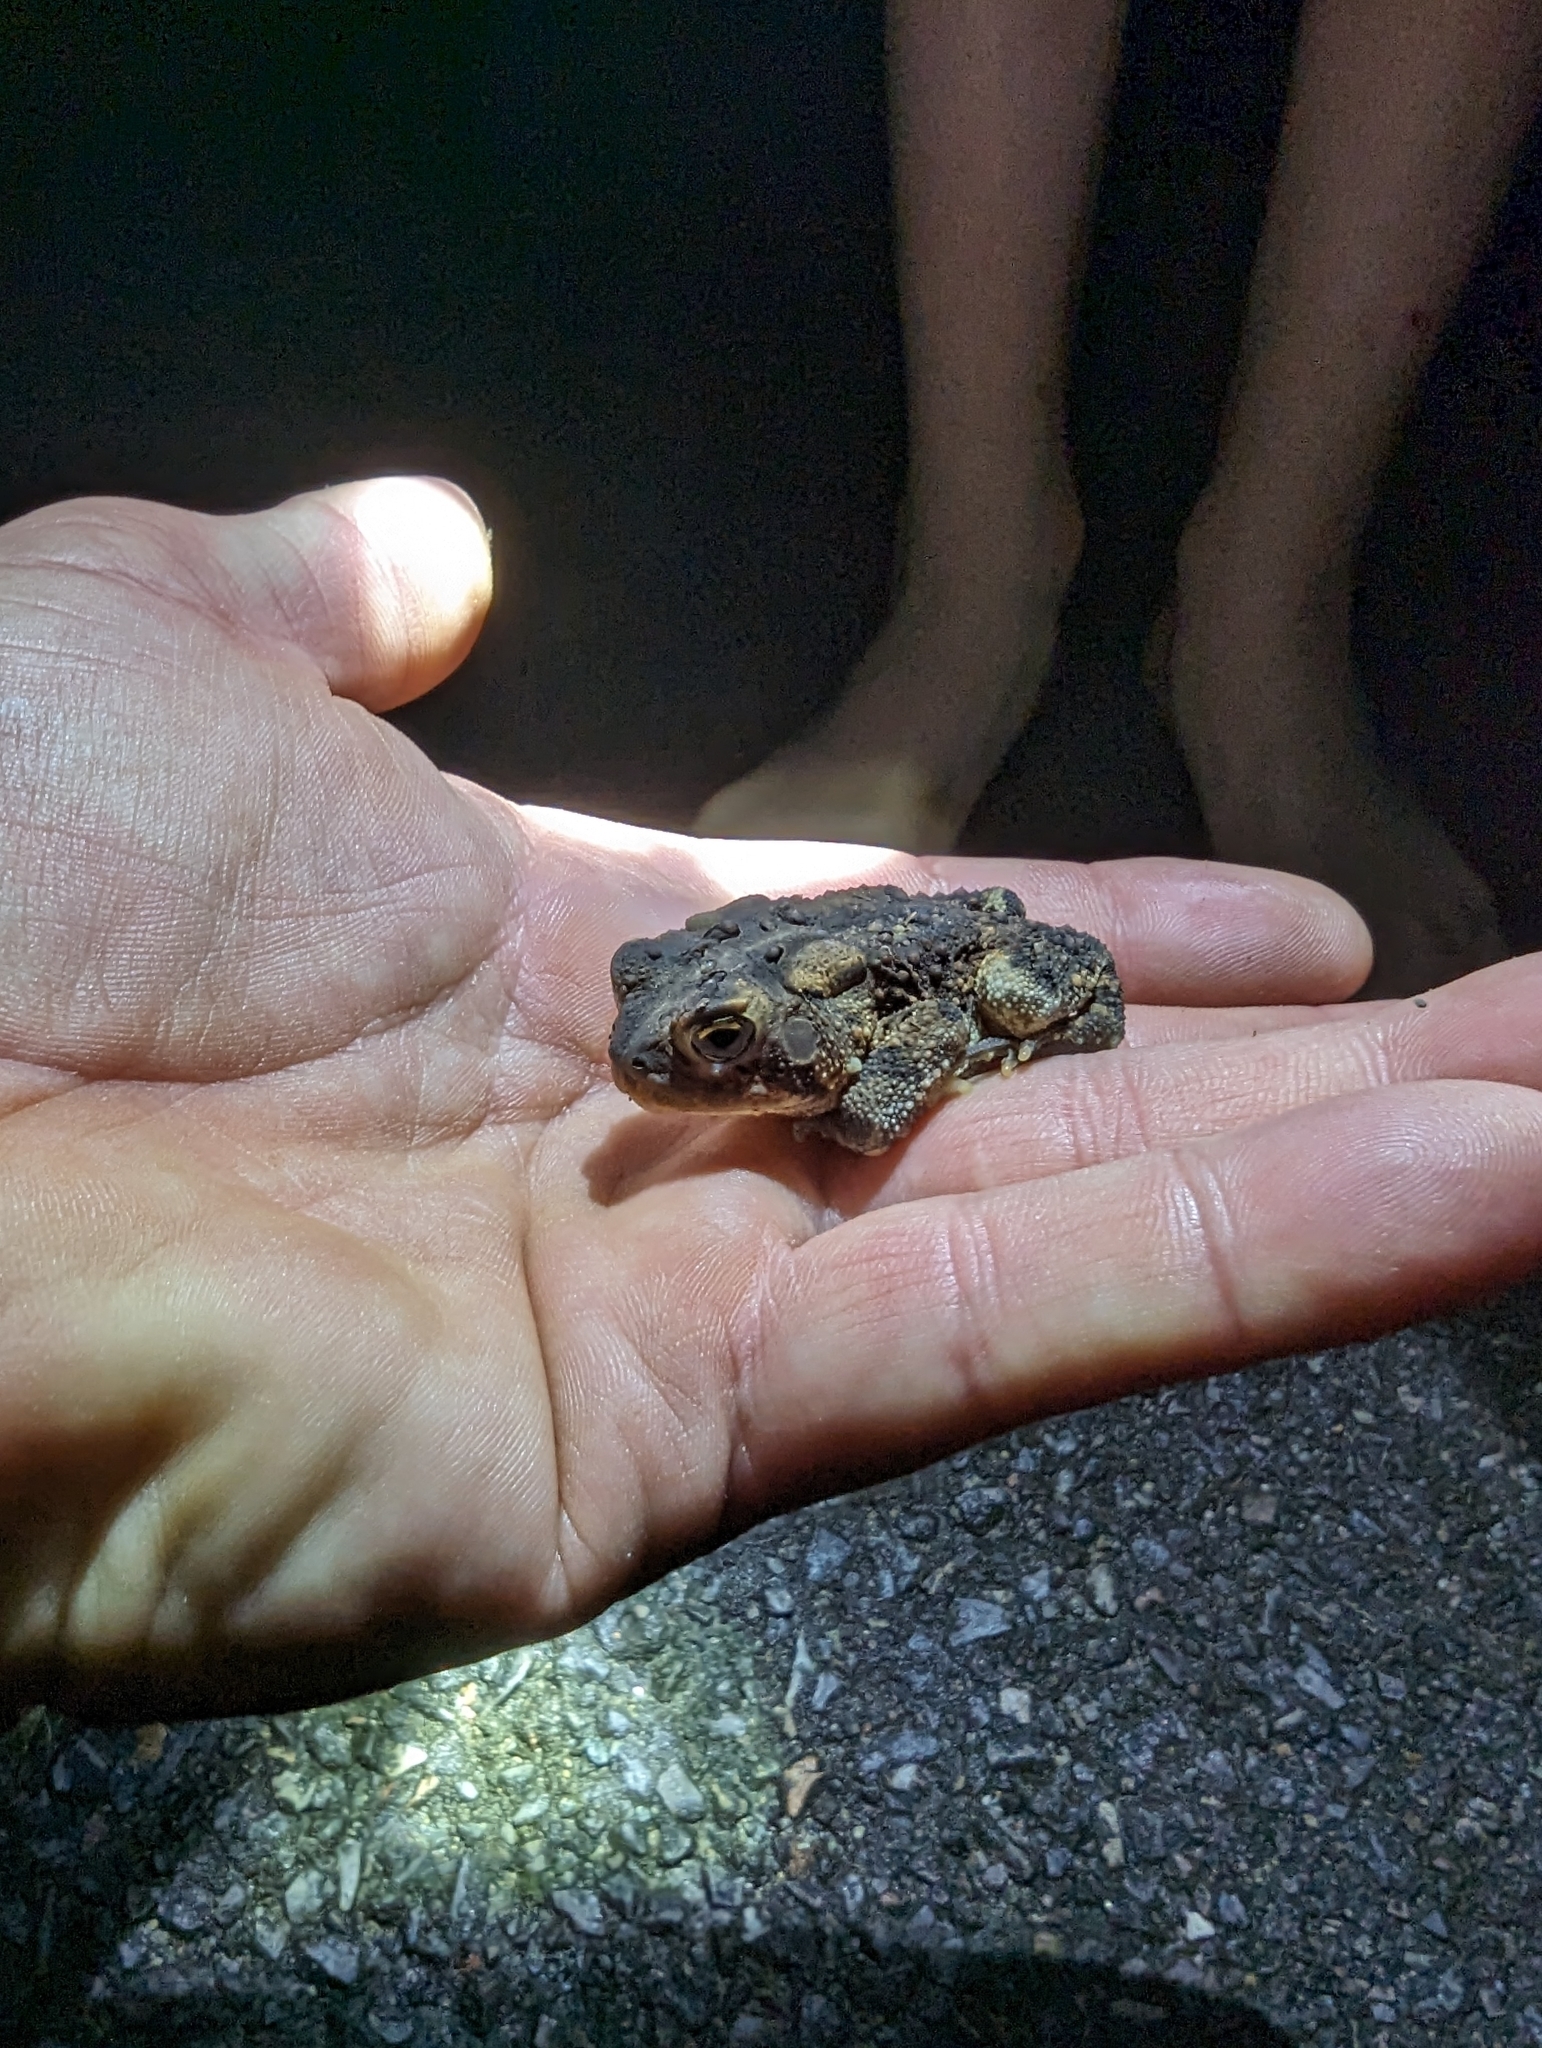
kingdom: Animalia
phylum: Chordata
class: Amphibia
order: Anura
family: Bufonidae
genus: Anaxyrus
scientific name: Anaxyrus americanus
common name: American toad
